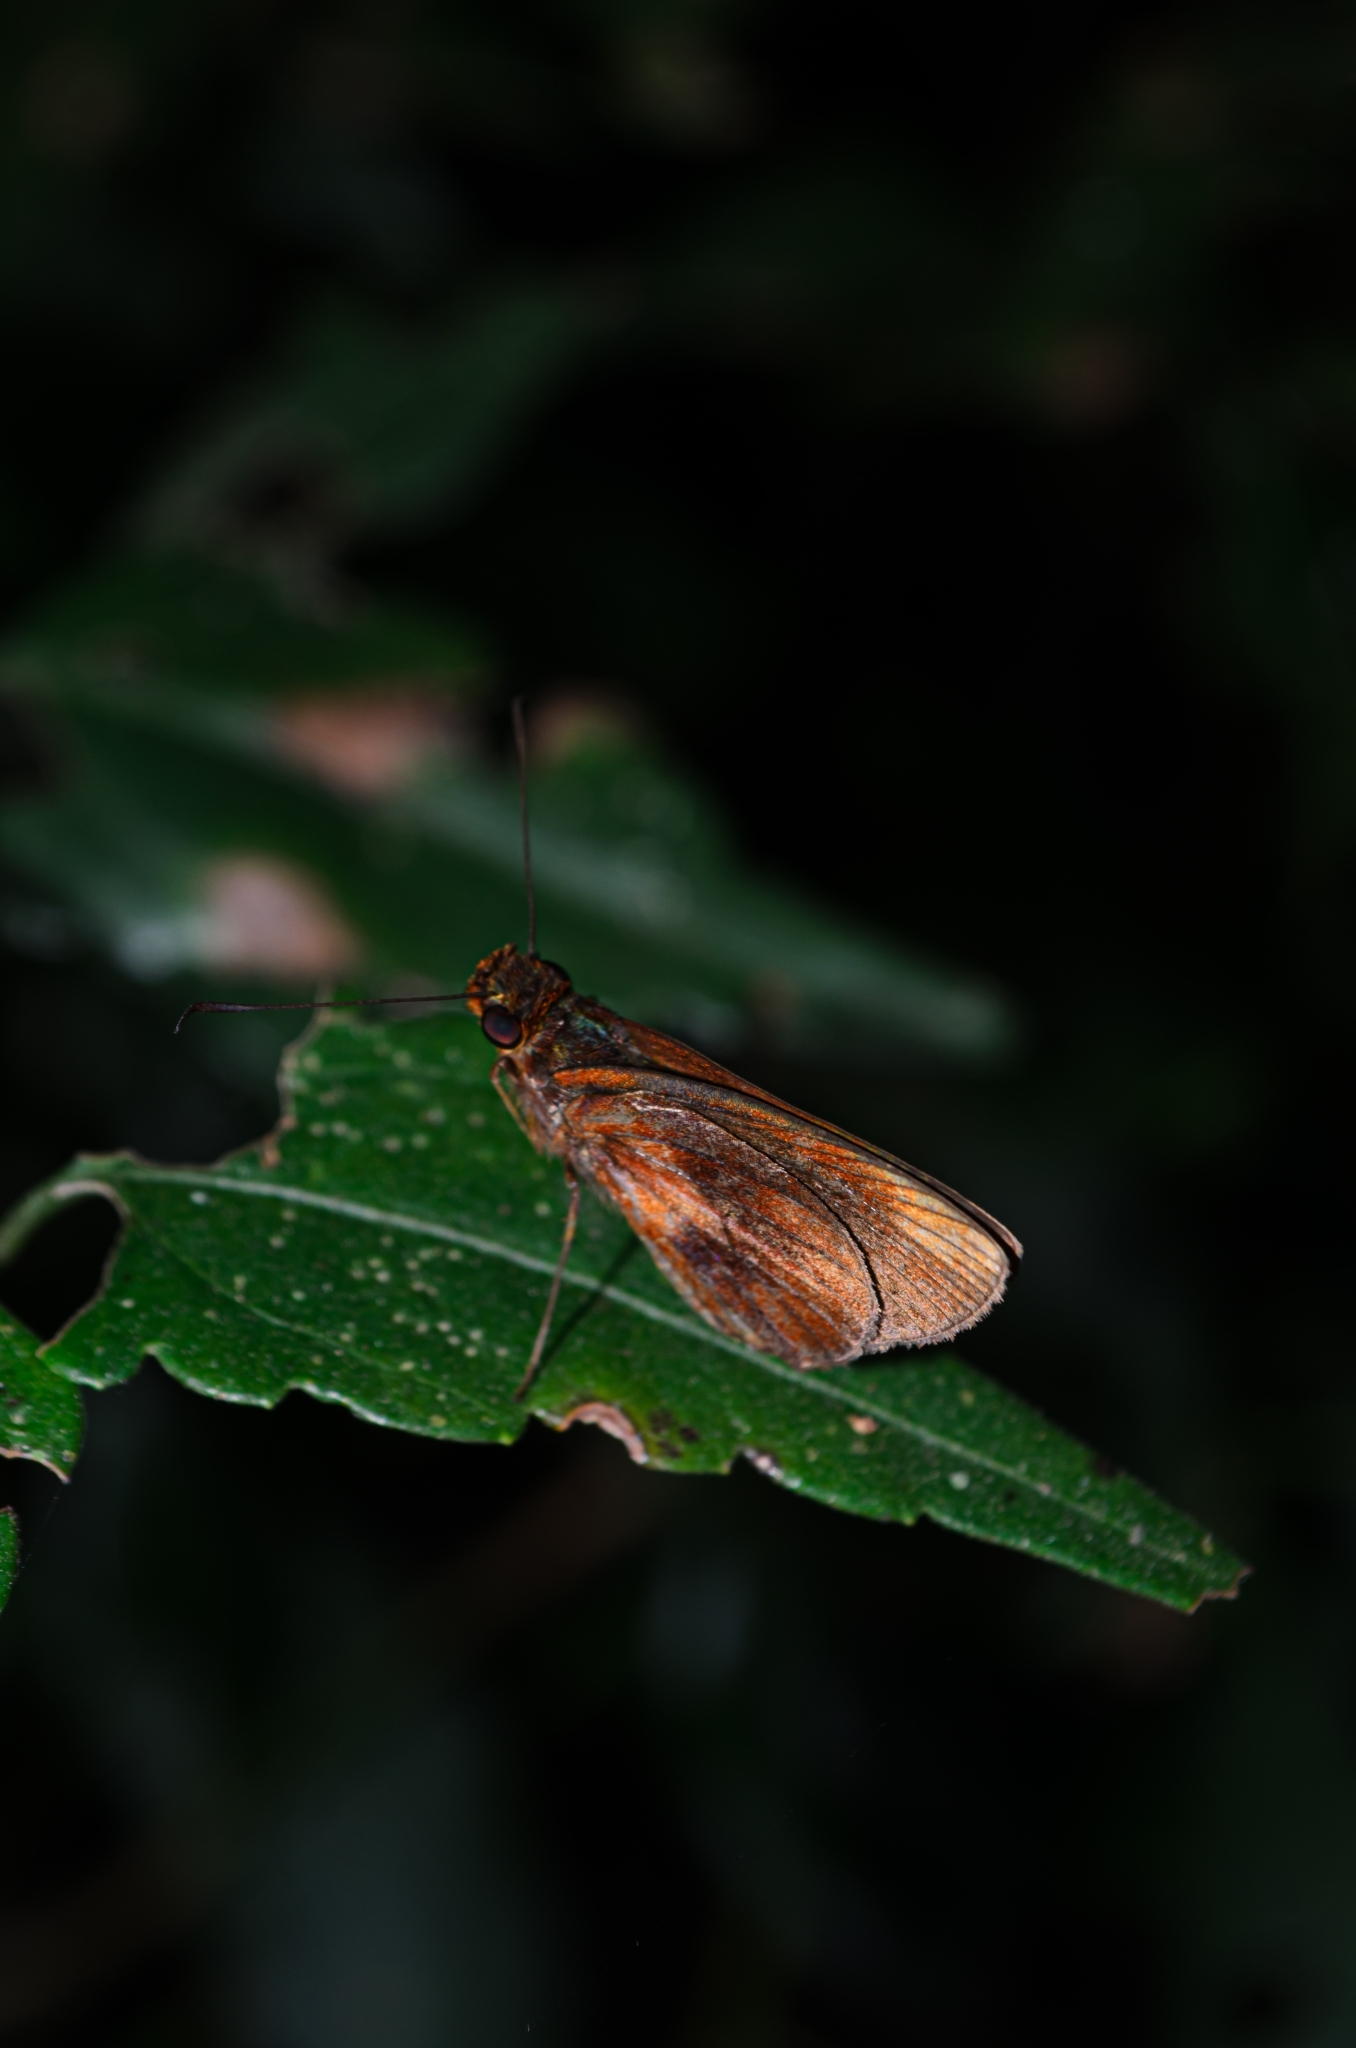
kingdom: Animalia
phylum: Arthropoda
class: Insecta
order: Lepidoptera
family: Hesperiidae
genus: Miltomiges
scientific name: Miltomiges cinnamomea
